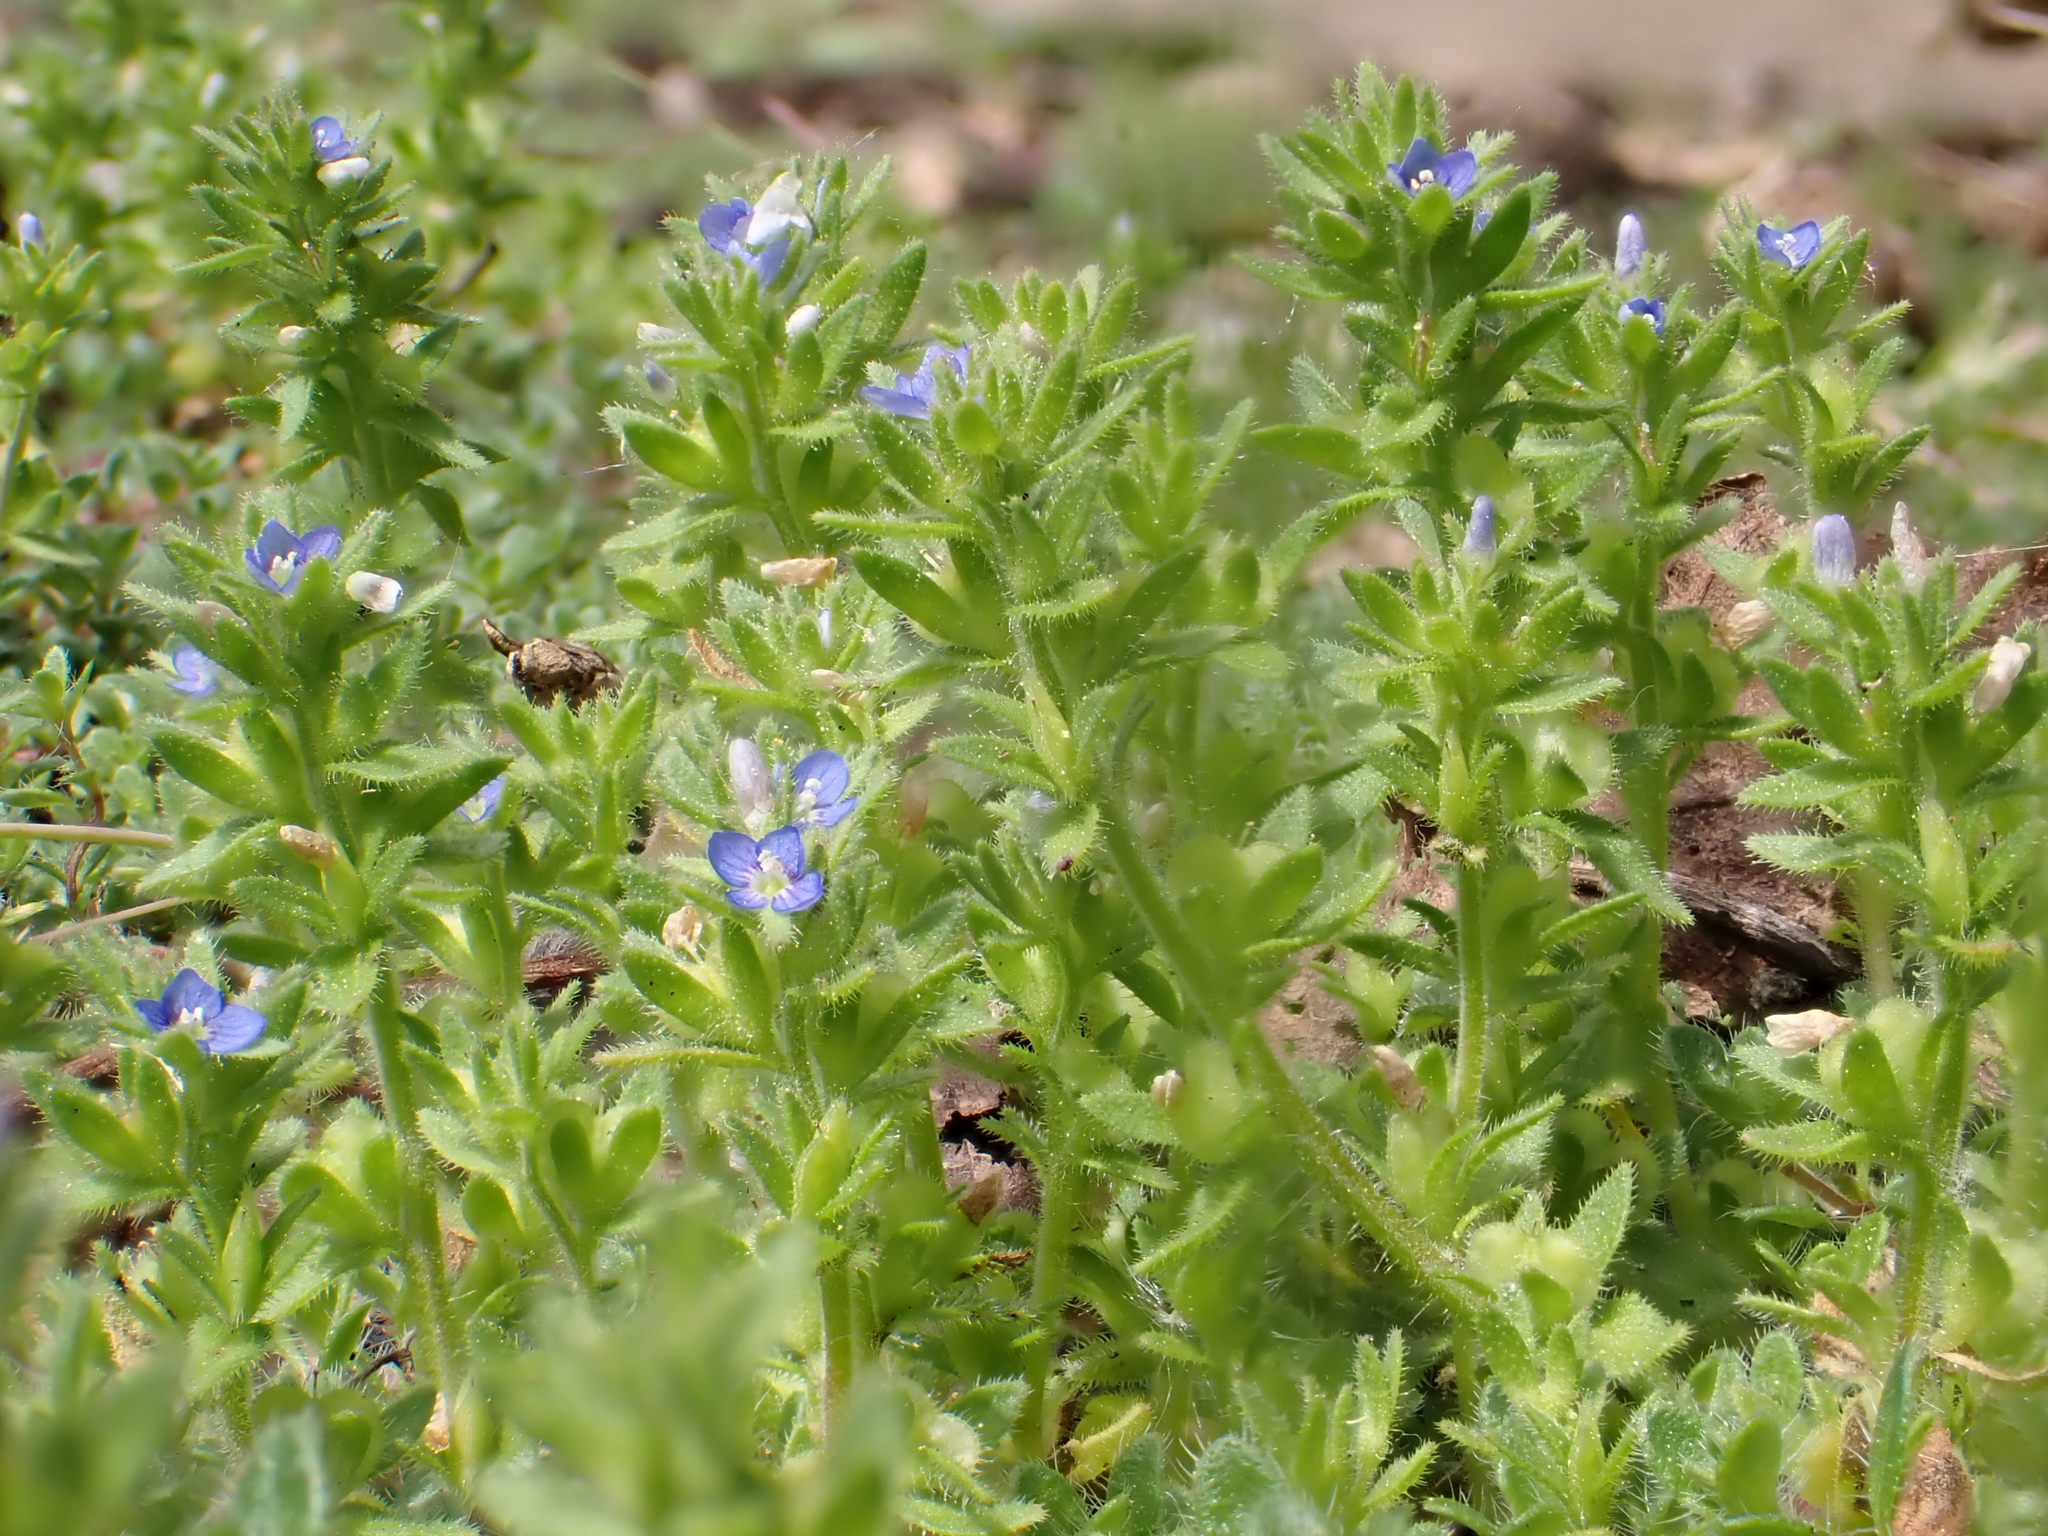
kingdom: Plantae
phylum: Tracheophyta
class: Magnoliopsida
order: Lamiales
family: Plantaginaceae
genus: Veronica
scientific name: Veronica arvensis
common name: Corn speedwell
